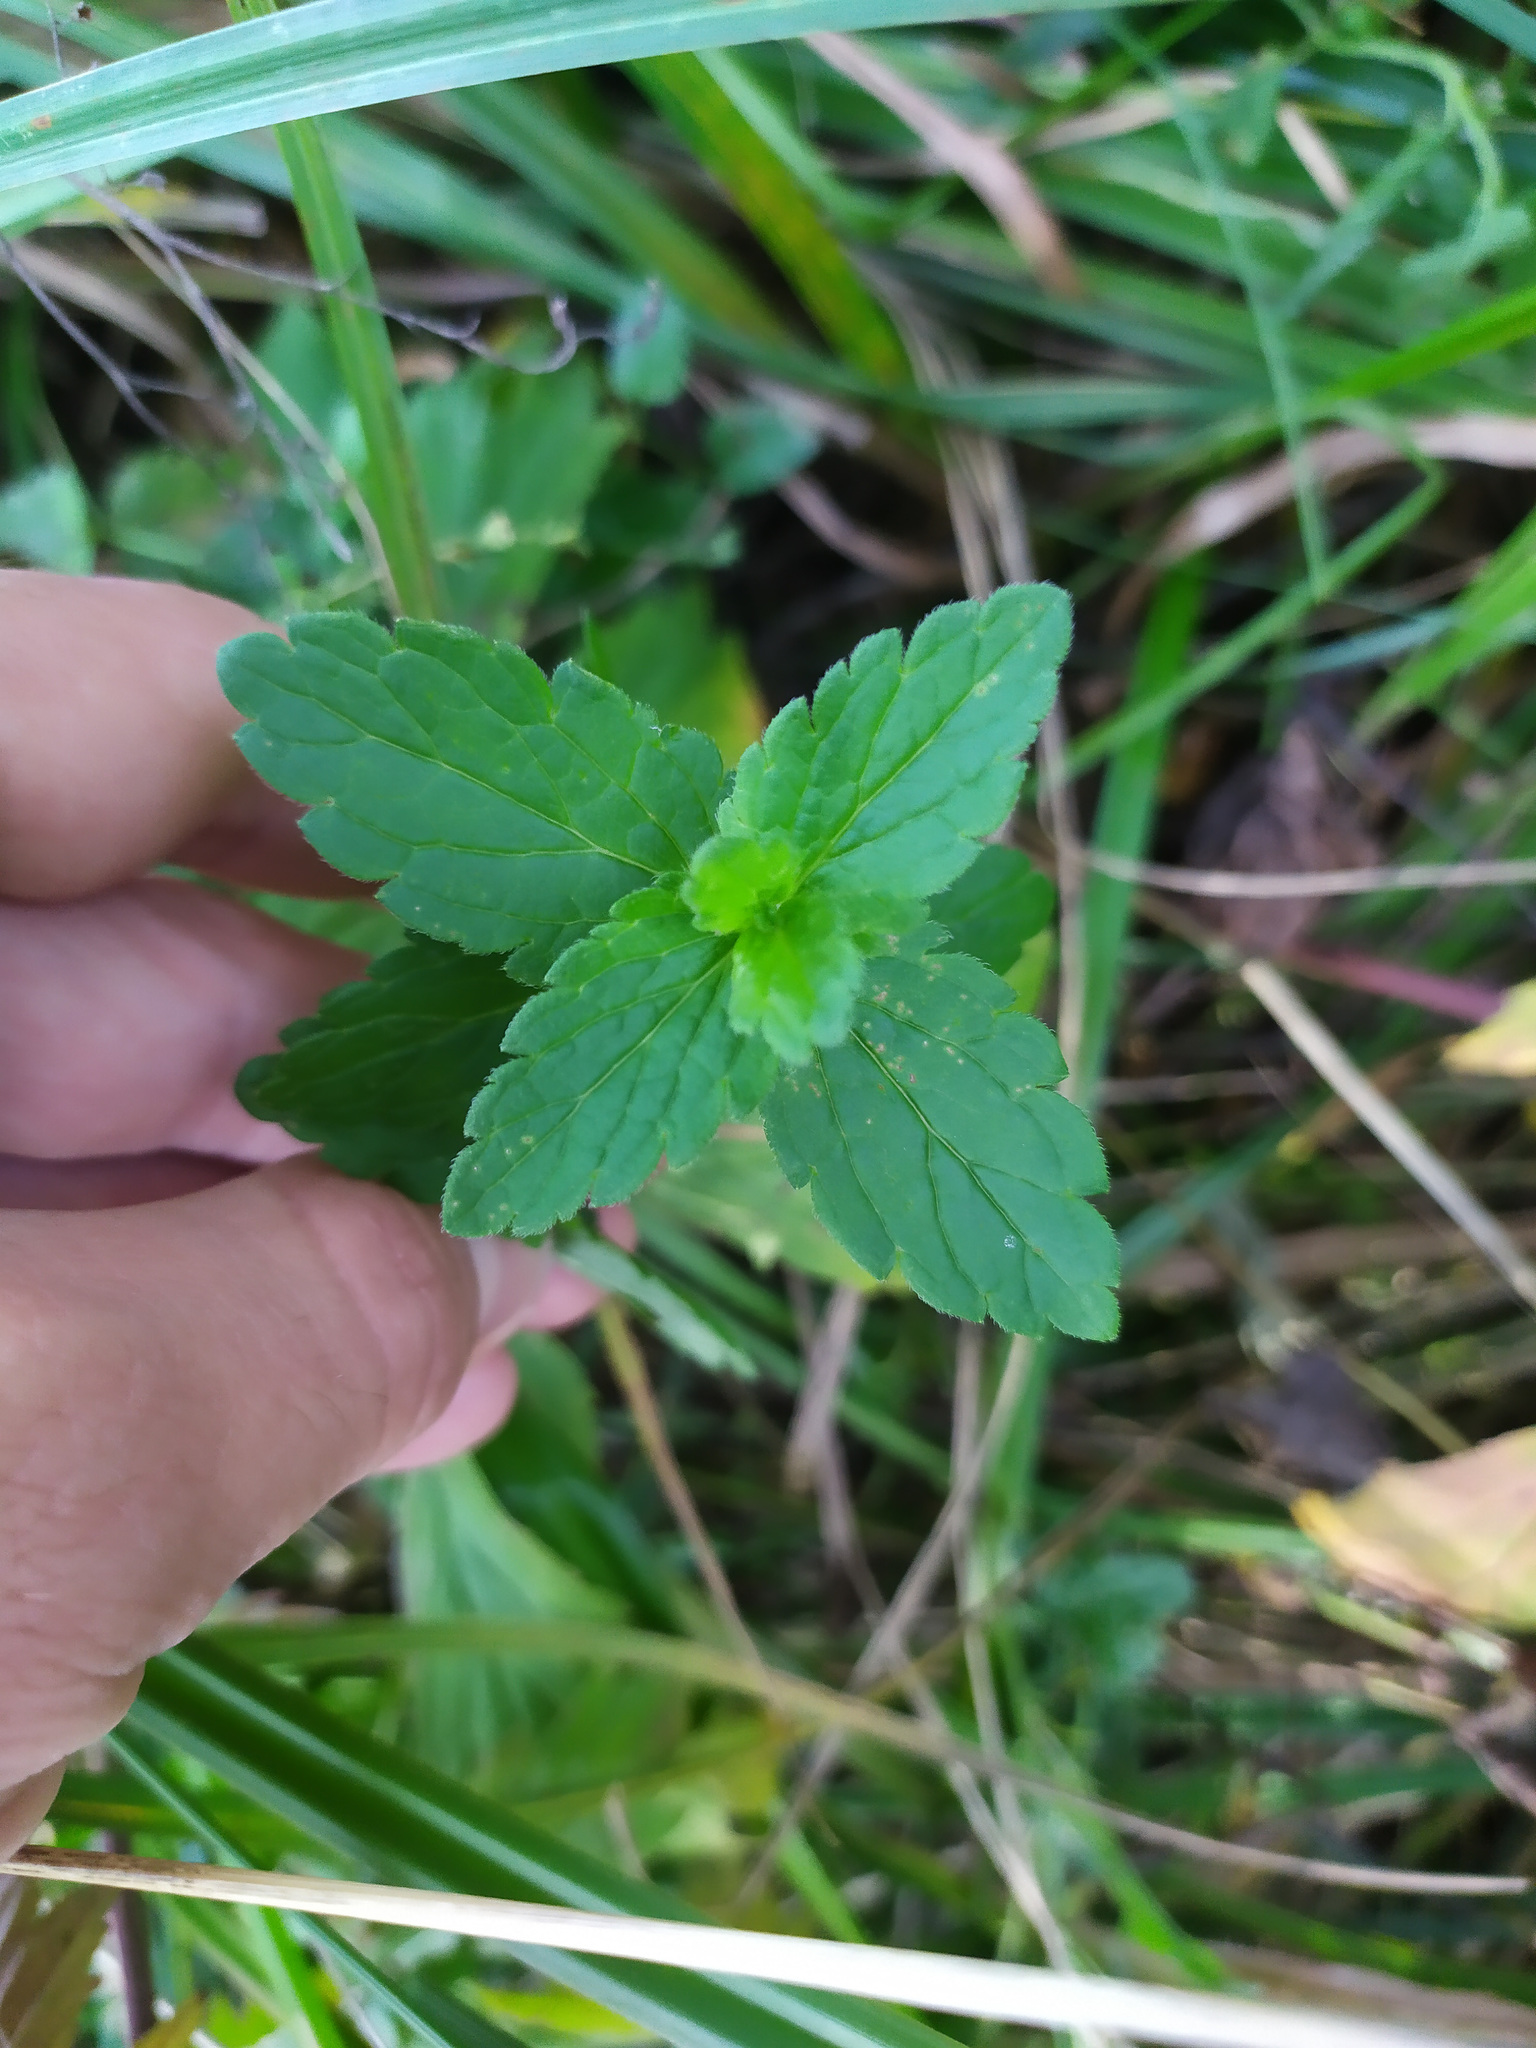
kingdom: Plantae
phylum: Tracheophyta
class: Magnoliopsida
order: Lamiales
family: Plantaginaceae
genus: Veronica
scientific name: Veronica chamaedrys
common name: Germander speedwell
